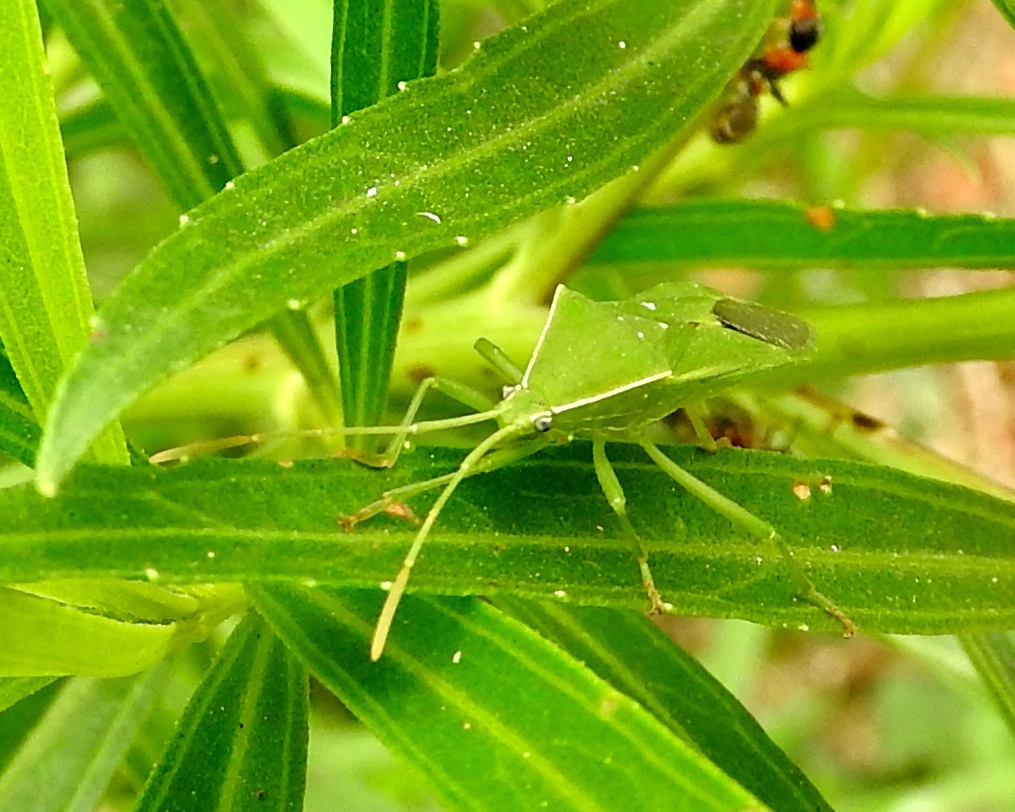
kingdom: Animalia
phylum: Arthropoda
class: Insecta
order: Hemiptera
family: Coreidae
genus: Savius
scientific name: Savius
